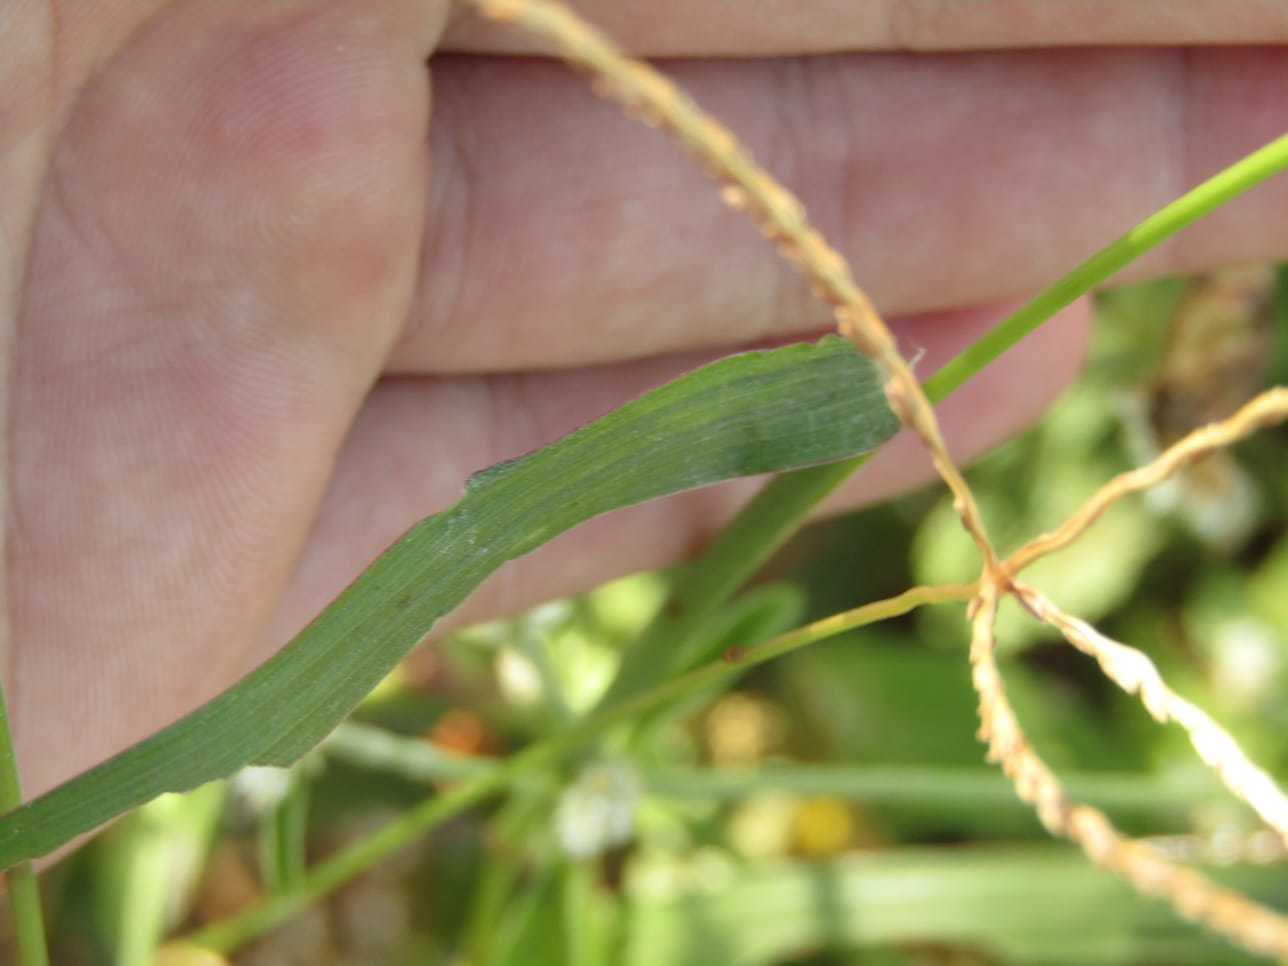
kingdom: Plantae
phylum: Tracheophyta
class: Liliopsida
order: Poales
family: Poaceae
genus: Cenchrus
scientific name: Cenchrus echinatus
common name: Southern sandbur
